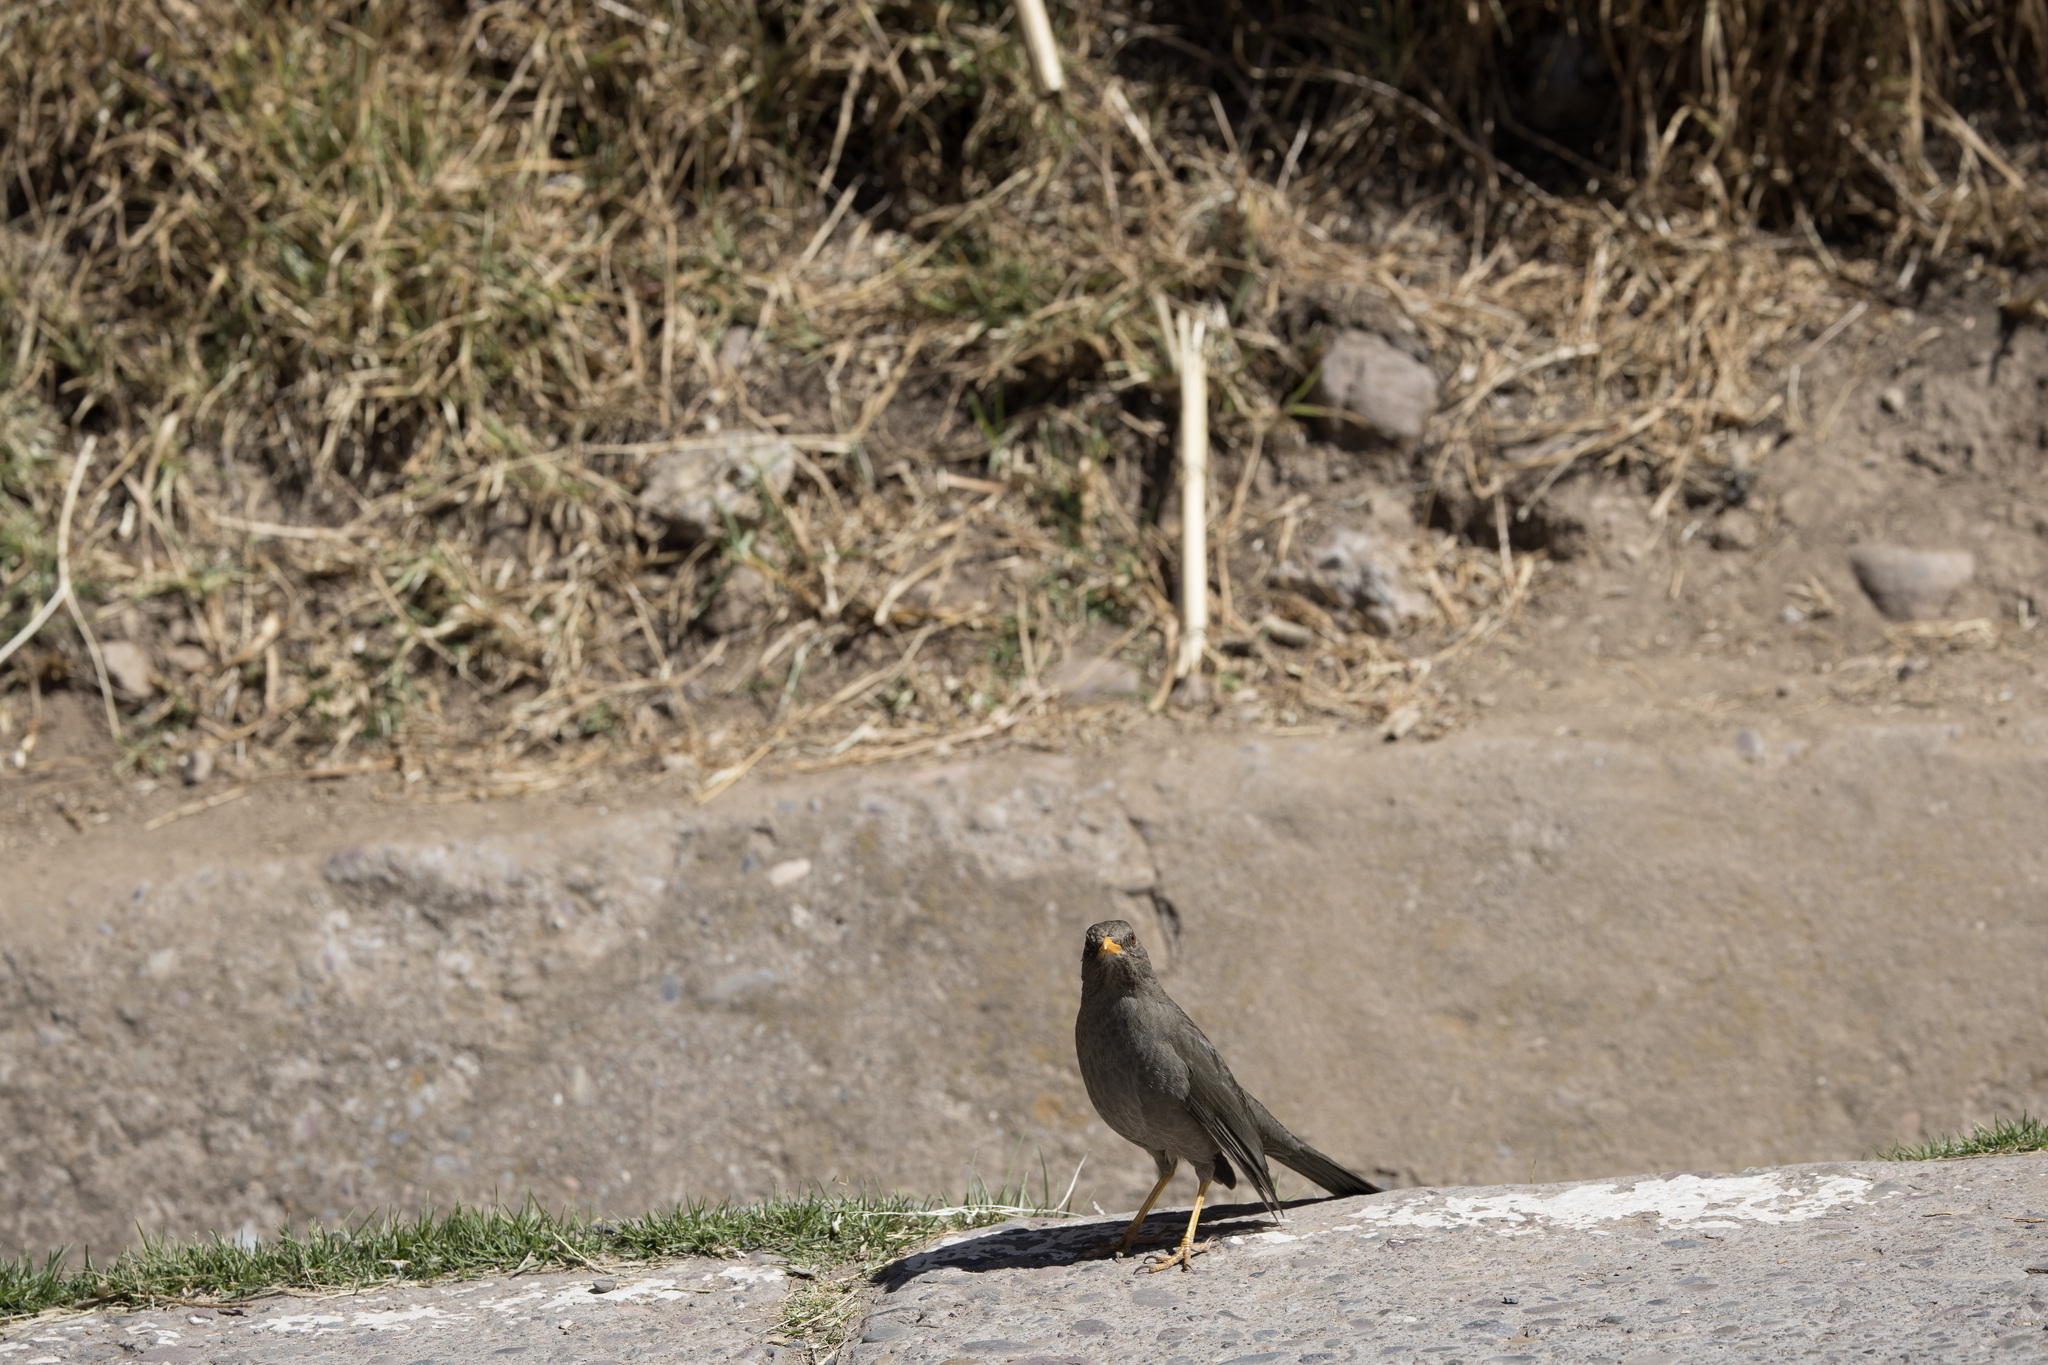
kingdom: Animalia
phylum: Chordata
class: Aves
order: Passeriformes
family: Turdidae
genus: Turdus
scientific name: Turdus chiguanco
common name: Chiguanco thrush
